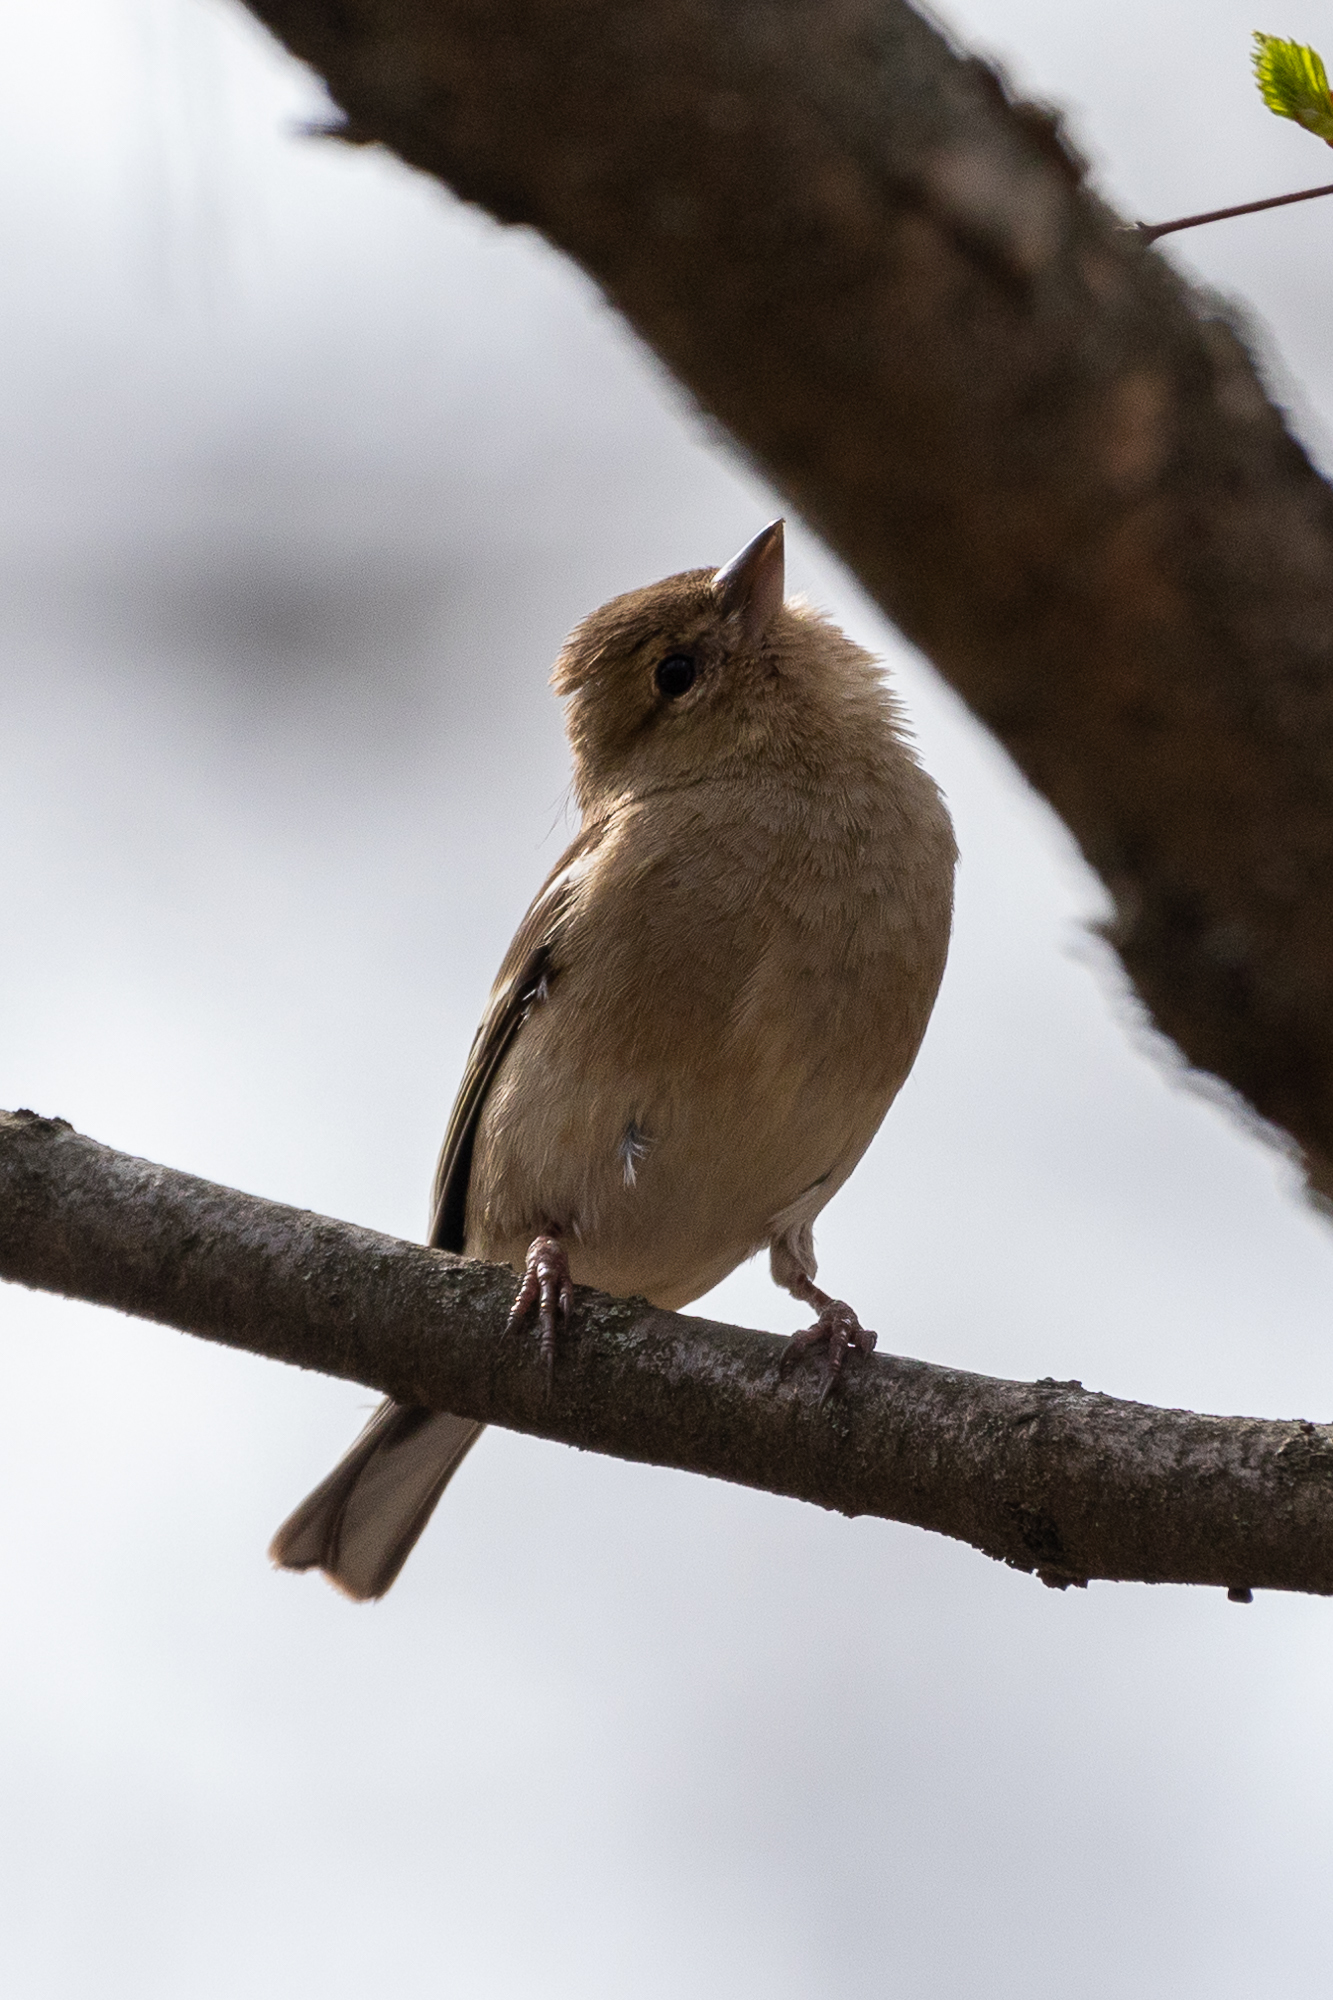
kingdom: Animalia
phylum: Chordata
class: Aves
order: Passeriformes
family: Fringillidae
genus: Fringilla
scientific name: Fringilla coelebs
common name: Common chaffinch
